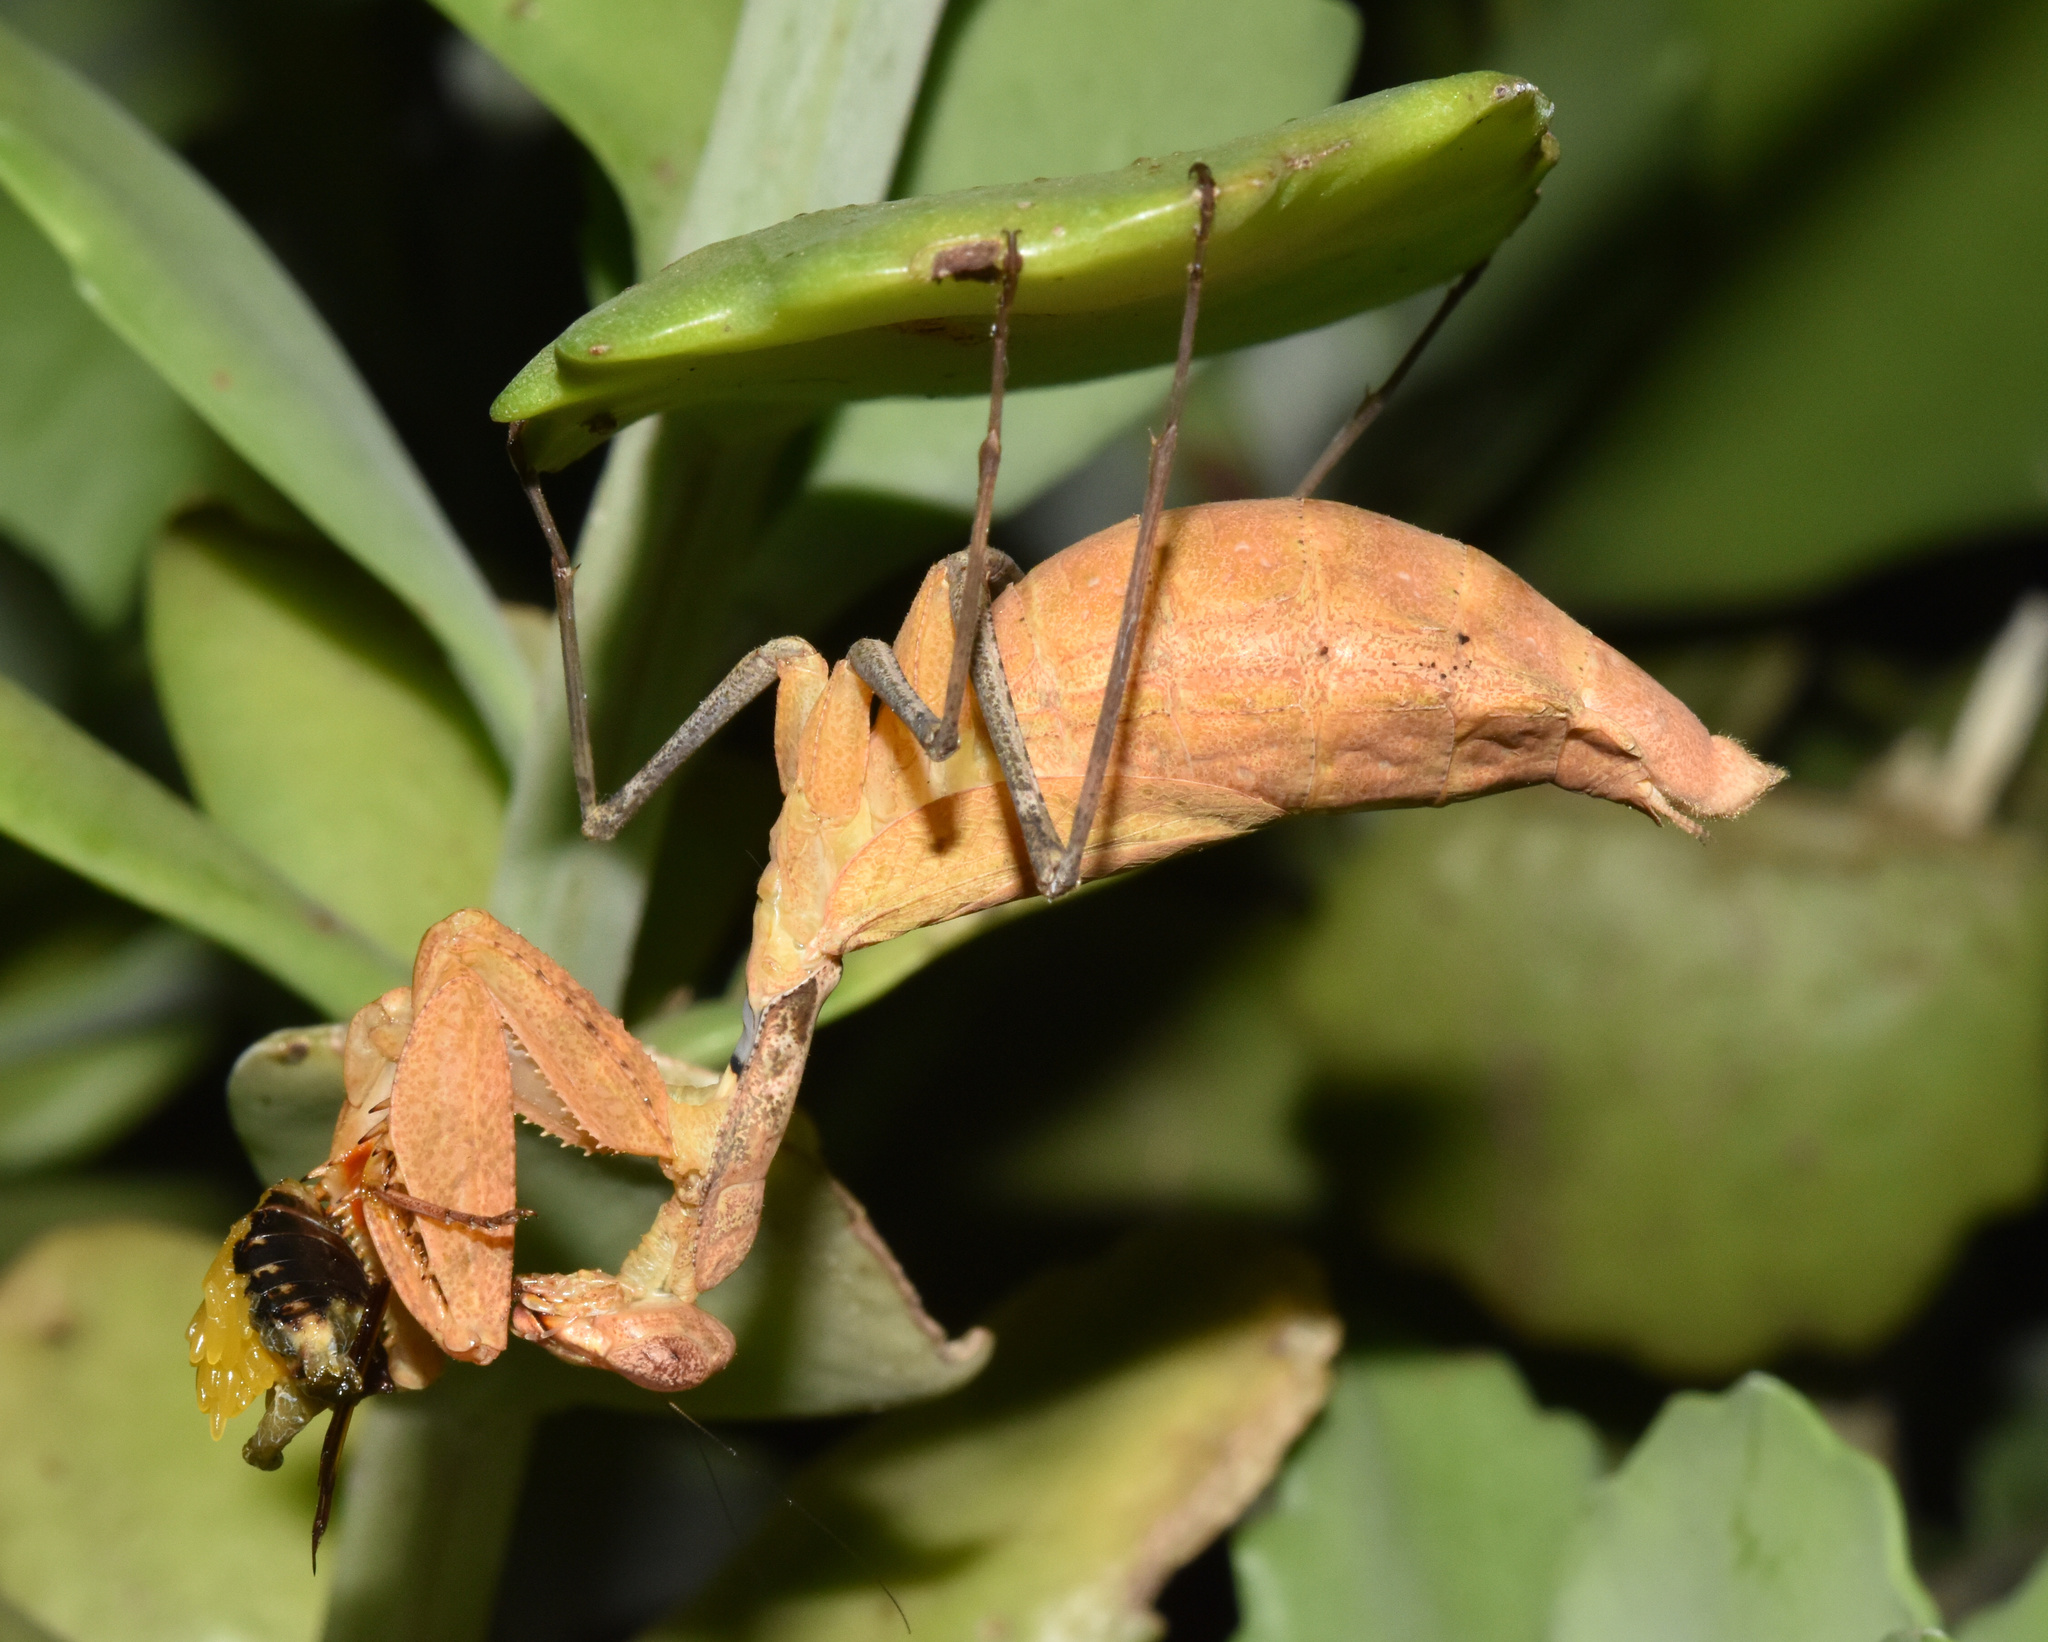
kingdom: Animalia
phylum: Arthropoda
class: Insecta
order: Mantodea
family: Chroicopteridae
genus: Dystacta
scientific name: Dystacta alticeps
